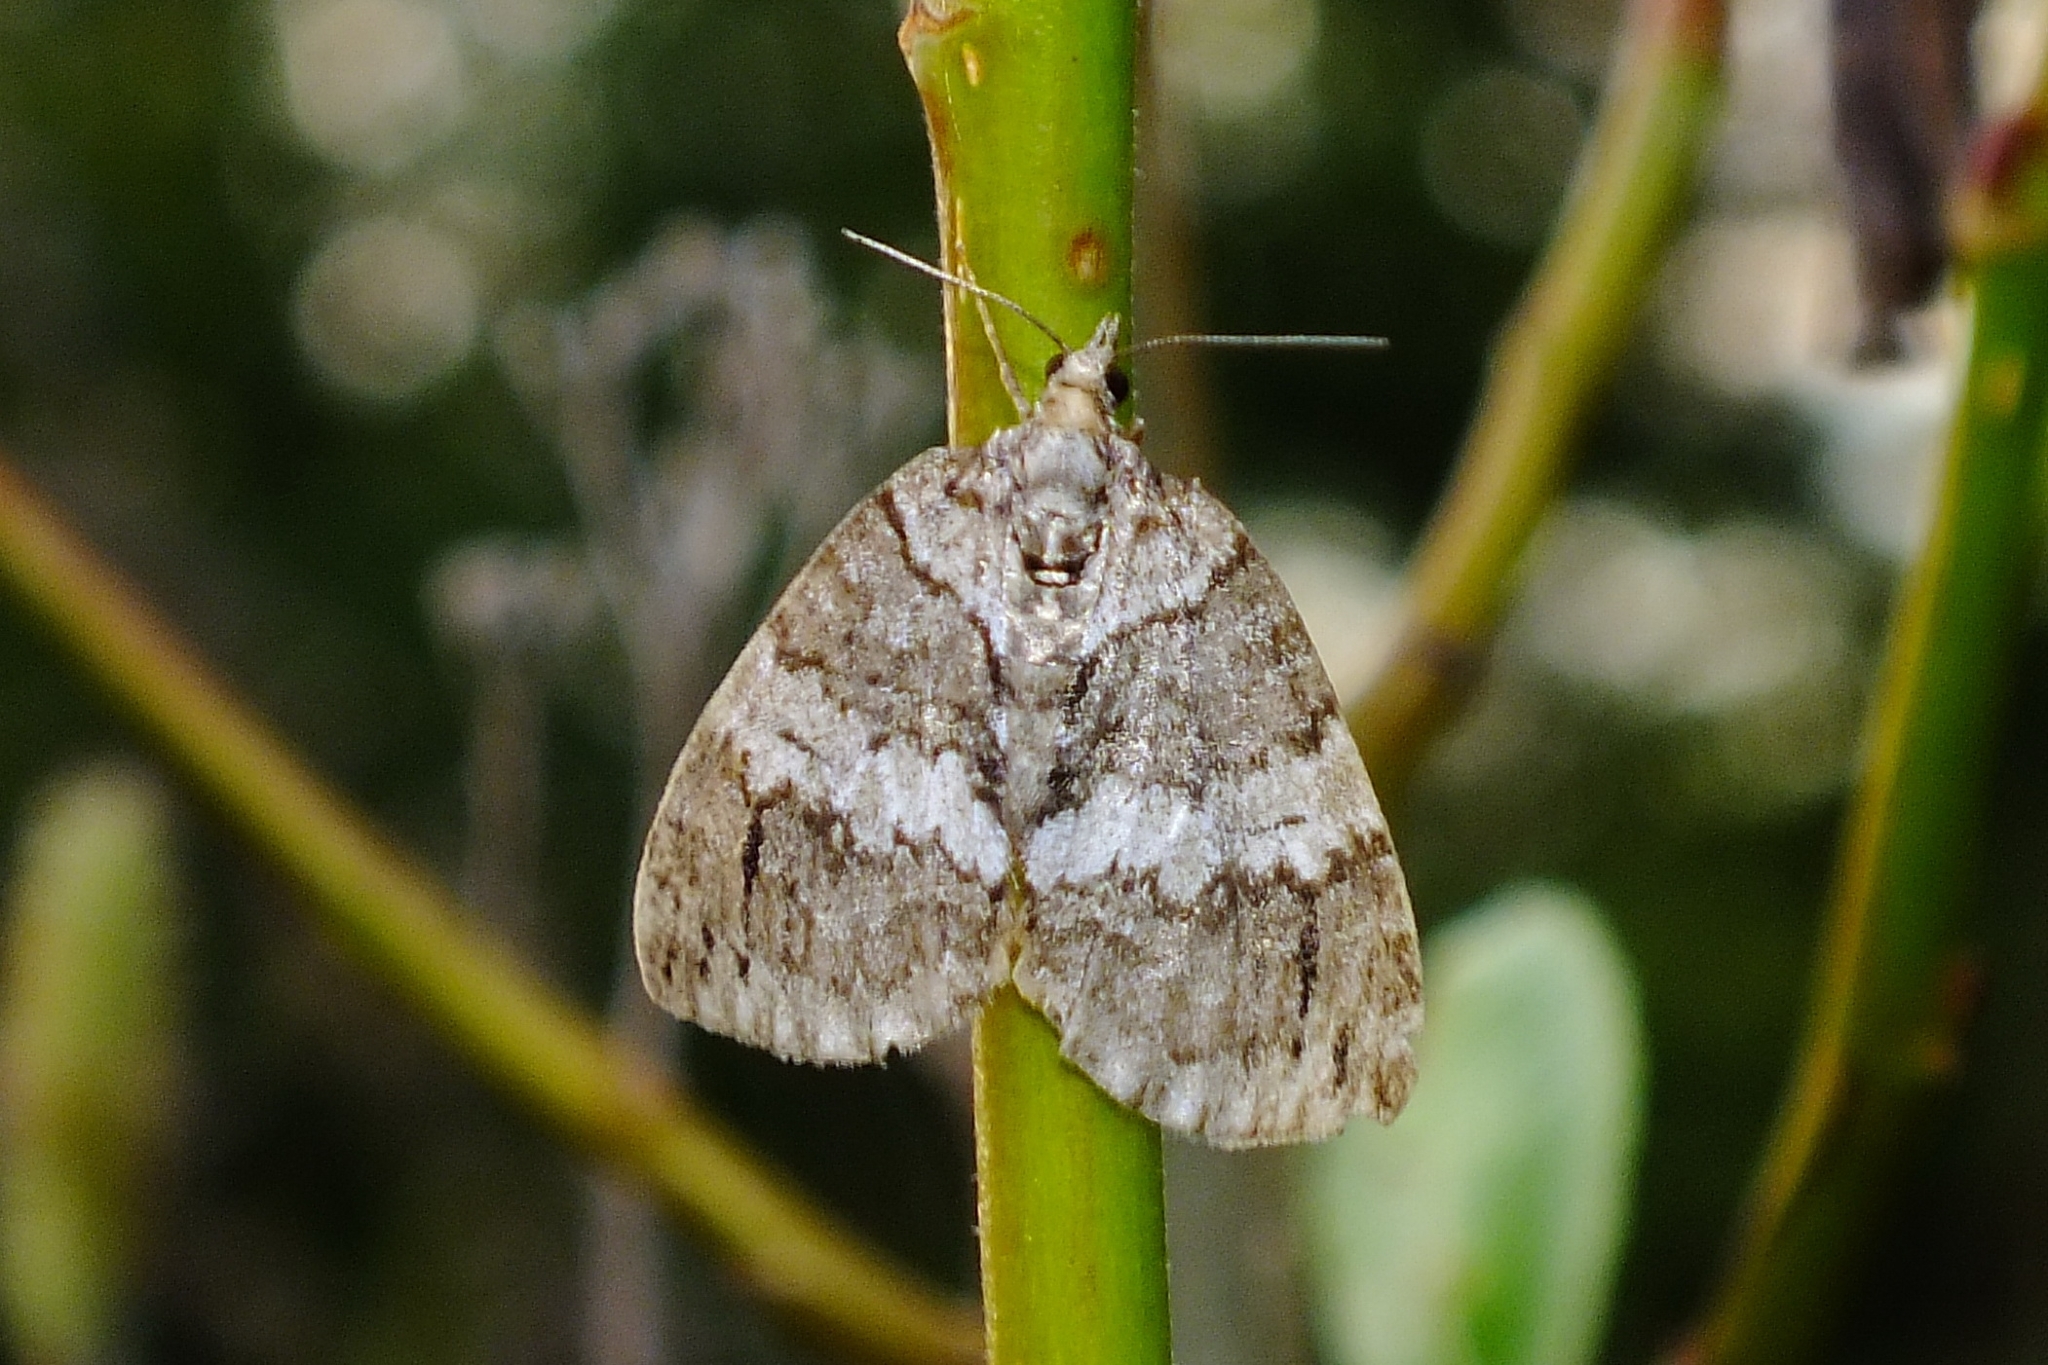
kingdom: Animalia
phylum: Arthropoda
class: Insecta
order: Lepidoptera
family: Geometridae
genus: Hydriomena
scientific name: Hydriomena impluviata
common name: May highflyer
